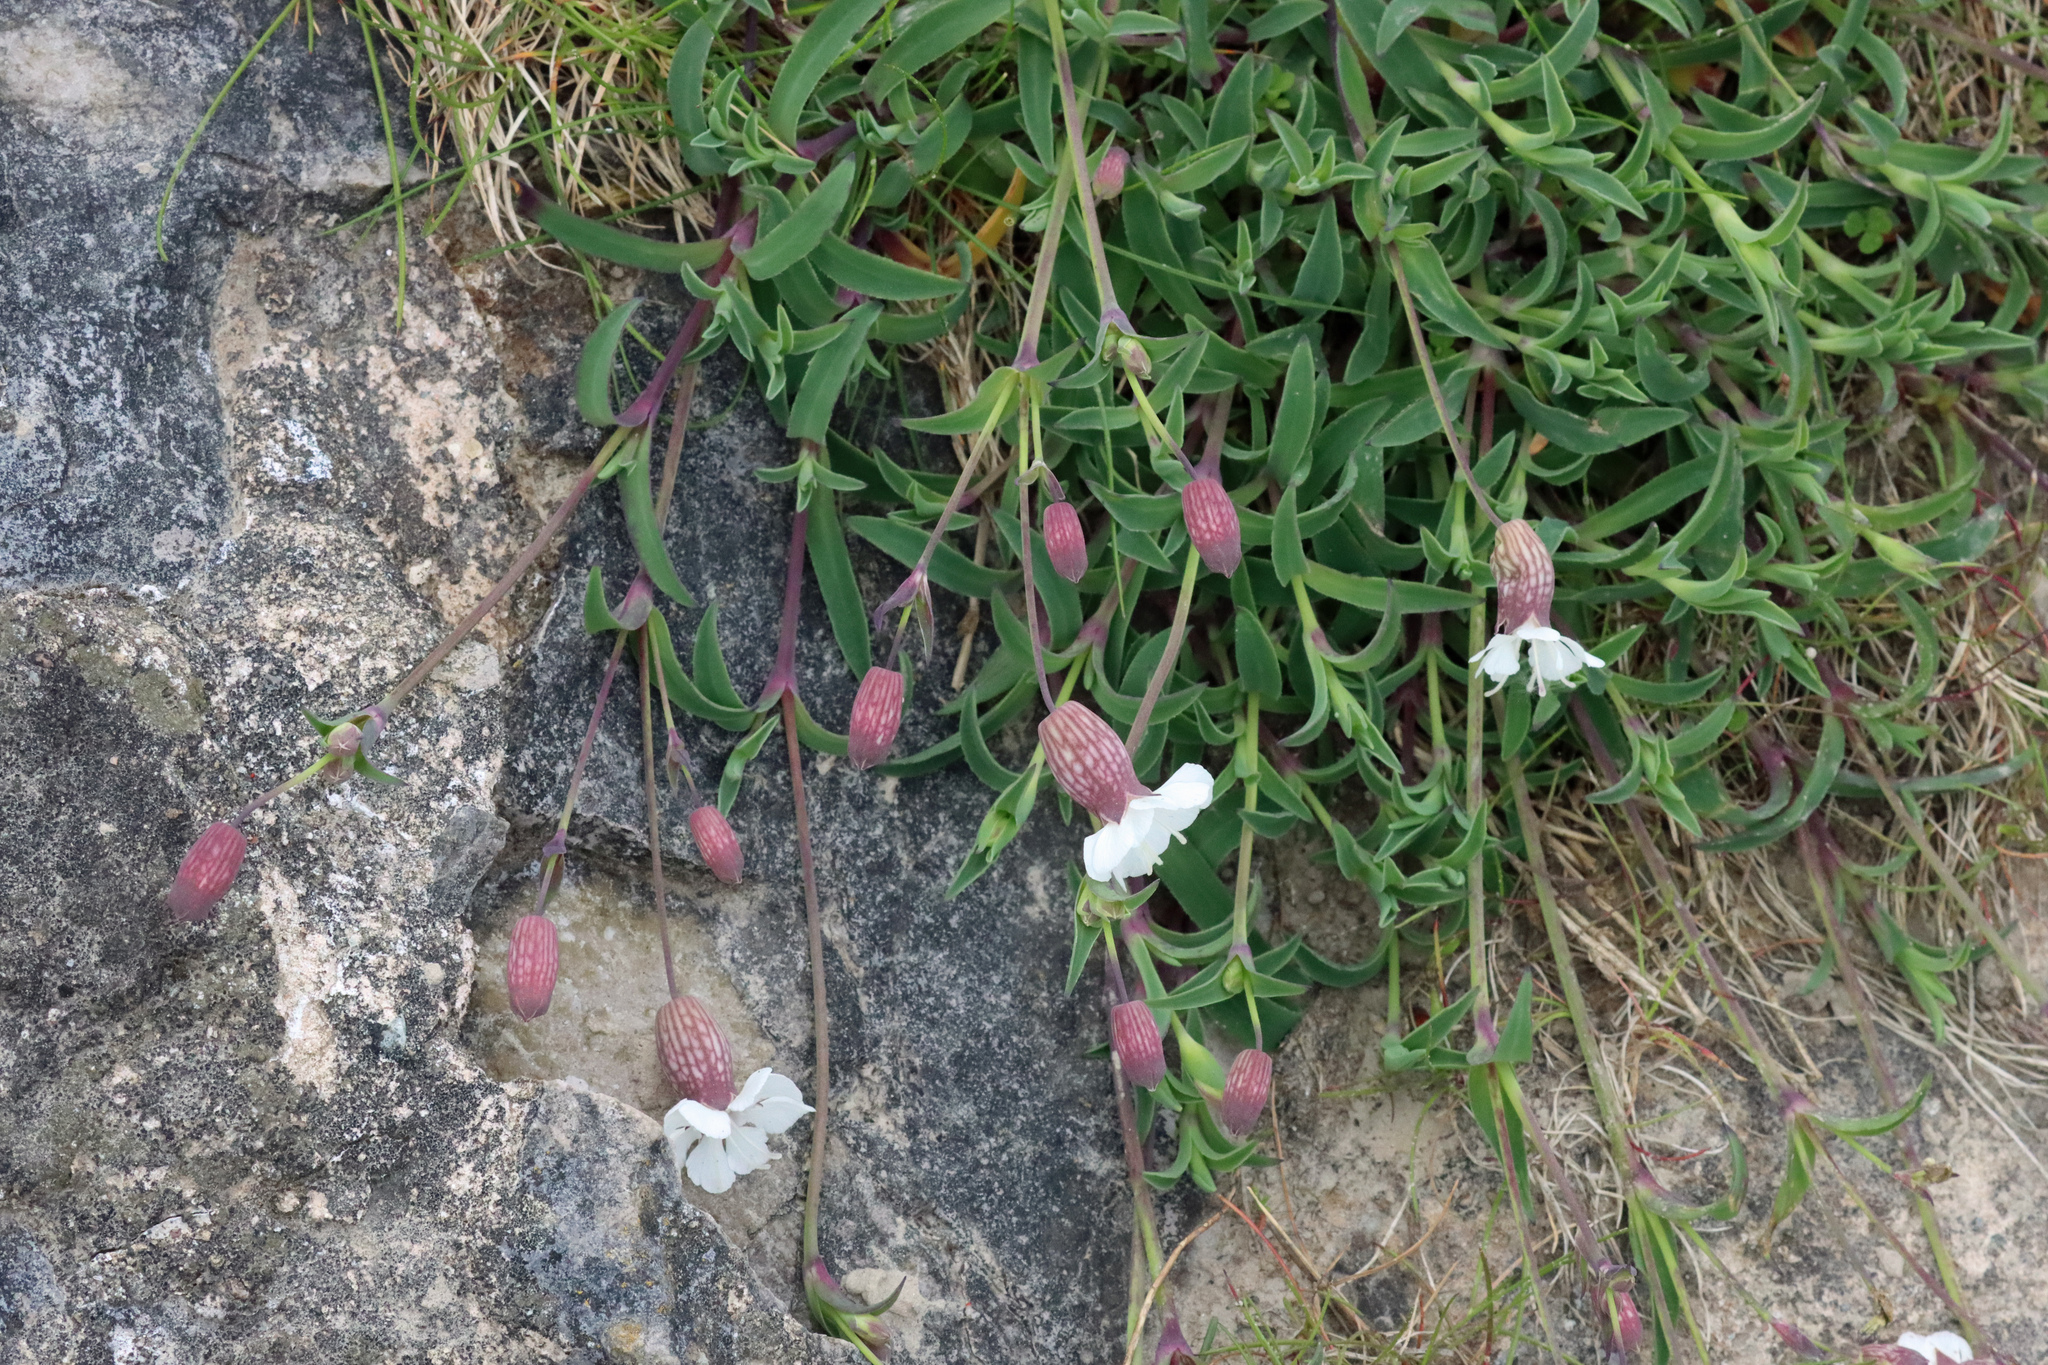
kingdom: Plantae
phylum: Tracheophyta
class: Magnoliopsida
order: Caryophyllales
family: Caryophyllaceae
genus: Silene
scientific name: Silene uniflora
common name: Sea campion
